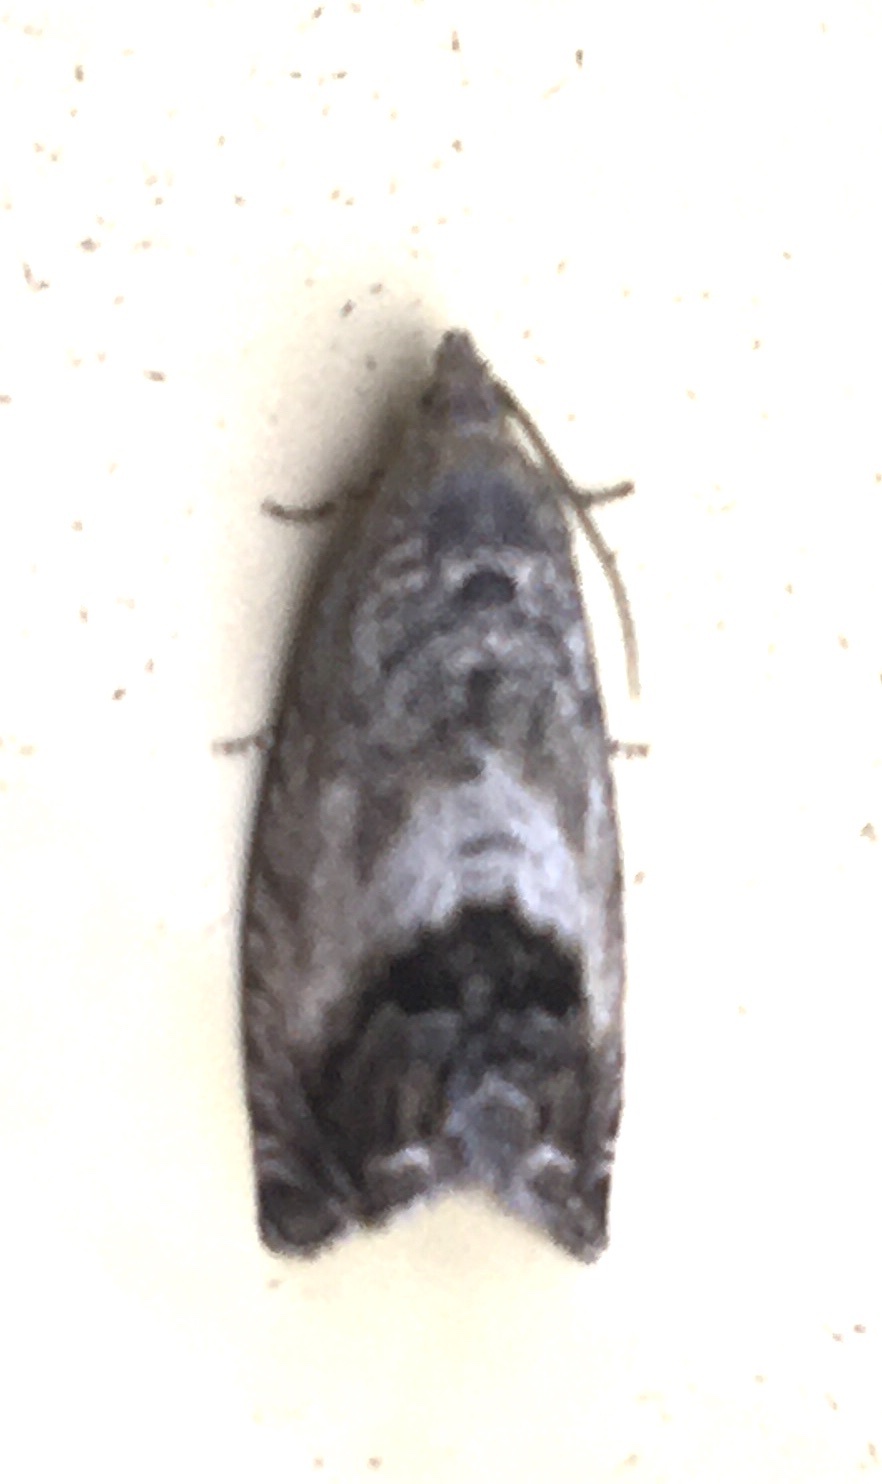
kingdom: Animalia
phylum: Arthropoda
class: Insecta
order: Lepidoptera
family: Tortricidae
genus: Cydia
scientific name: Cydia splendana
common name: De: kastanienwickler, eichenwickler es: oruga de la castaña fr: carpocapse des châtaignes it: cidia o tortrice tardiva delle castagne pt: bichado das castanhas gb: acorn moth, chestnut fruit tortrix
